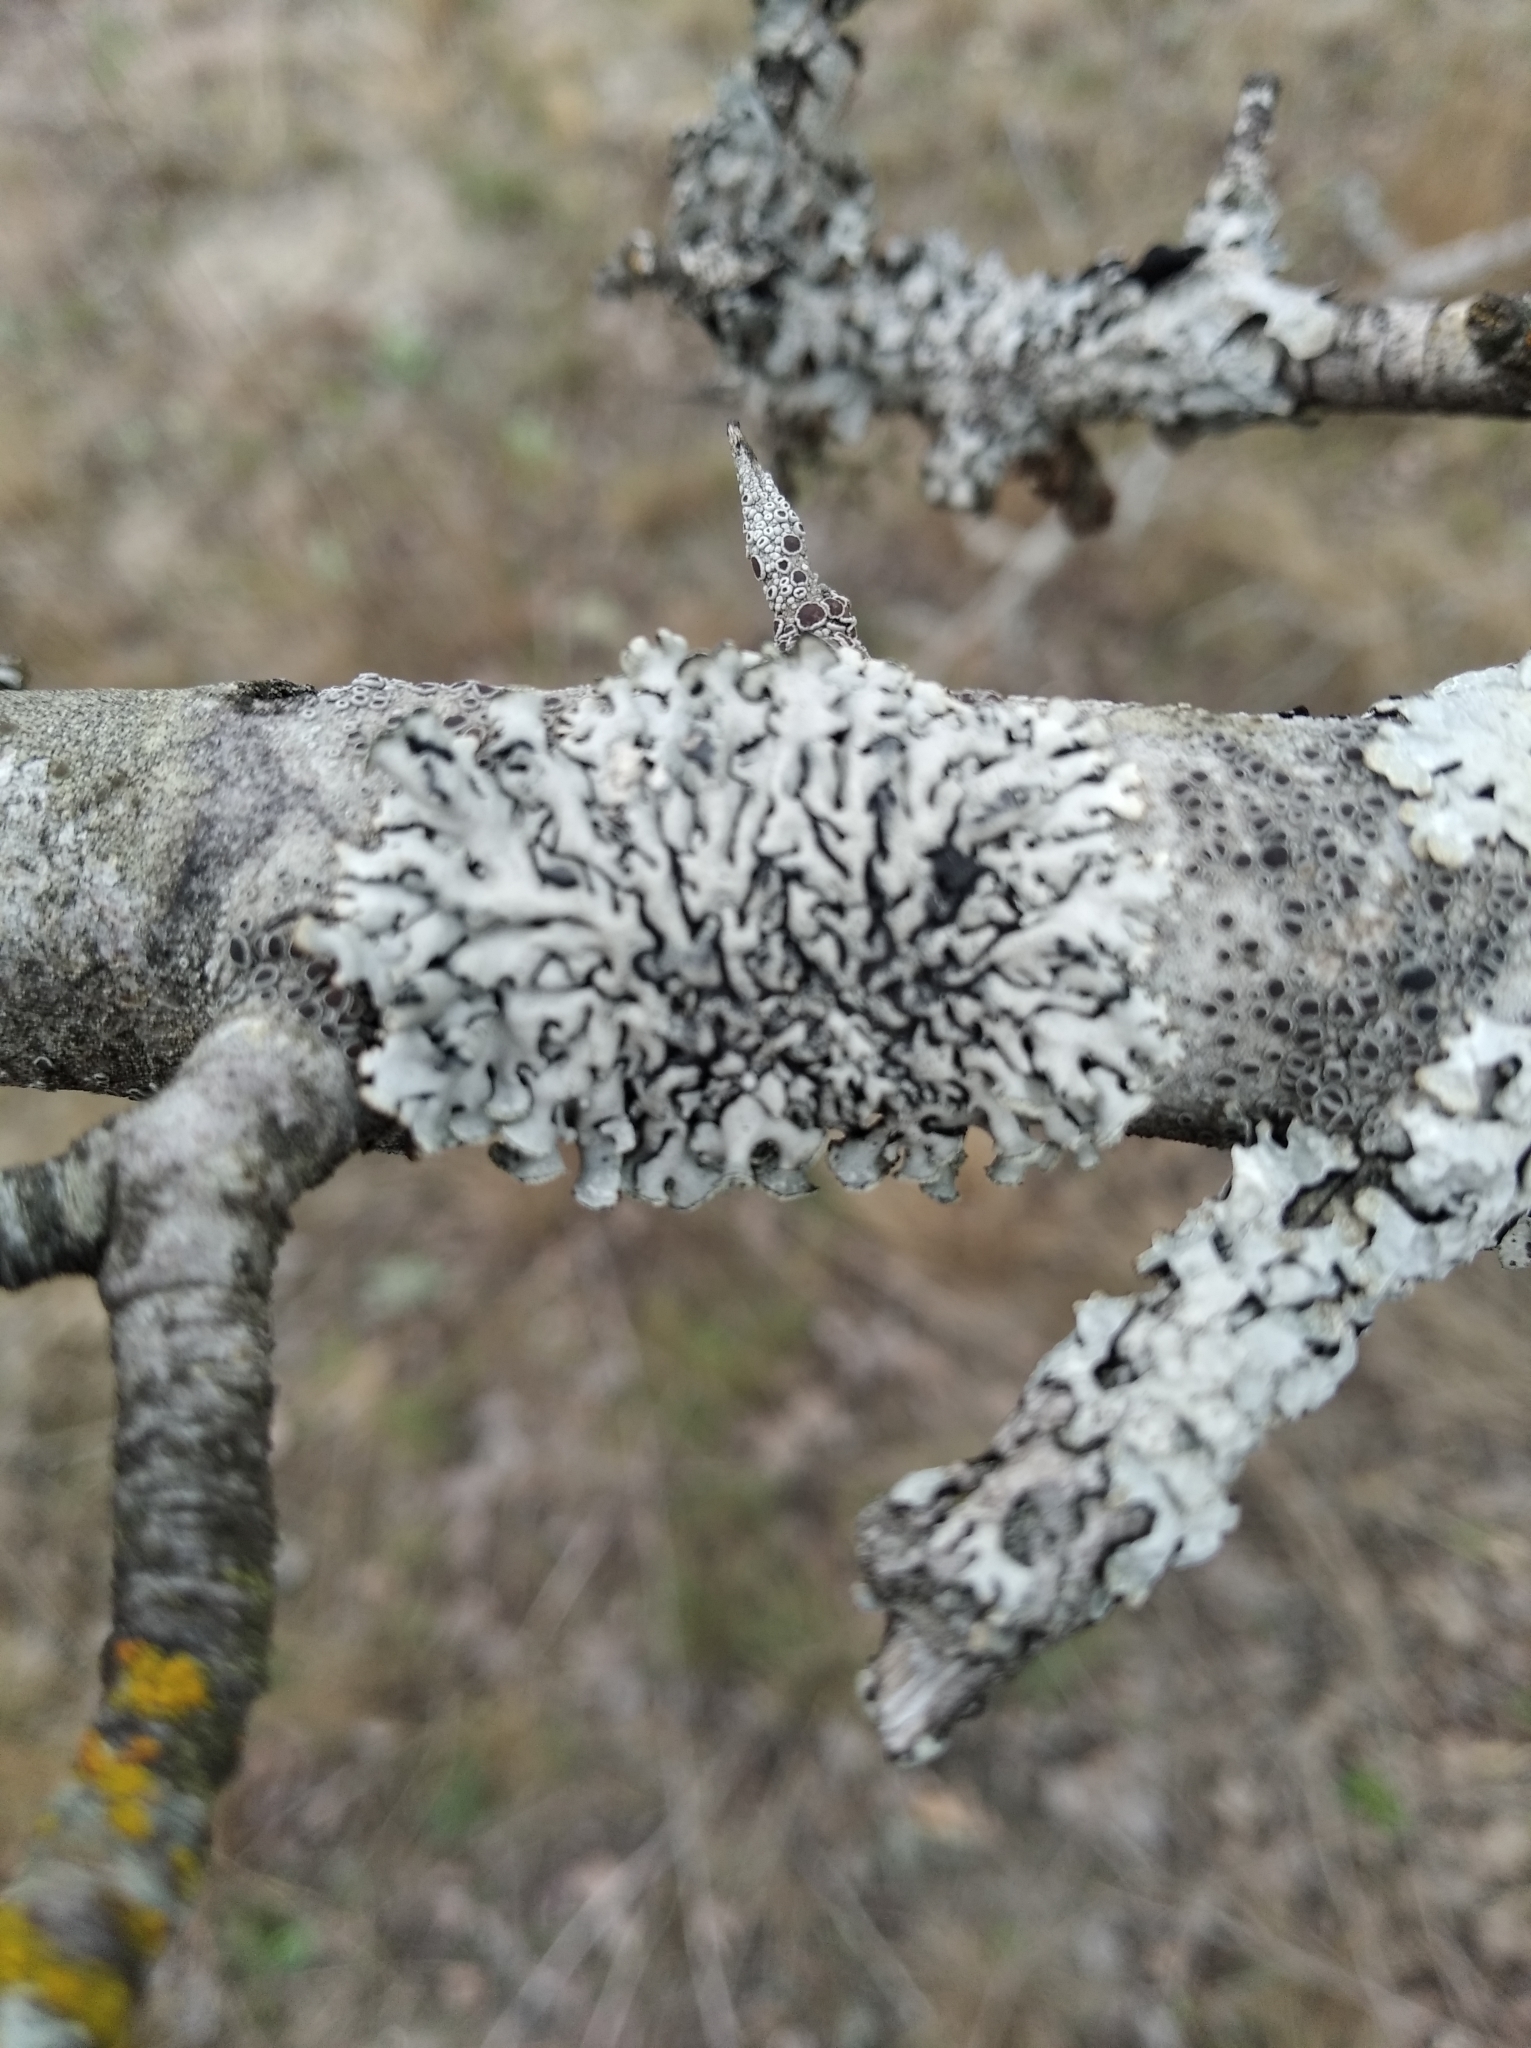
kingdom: Fungi
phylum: Ascomycota
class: Lecanoromycetes
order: Lecanorales
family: Parmeliaceae
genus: Hypogymnia
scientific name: Hypogymnia physodes
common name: Dark crottle
